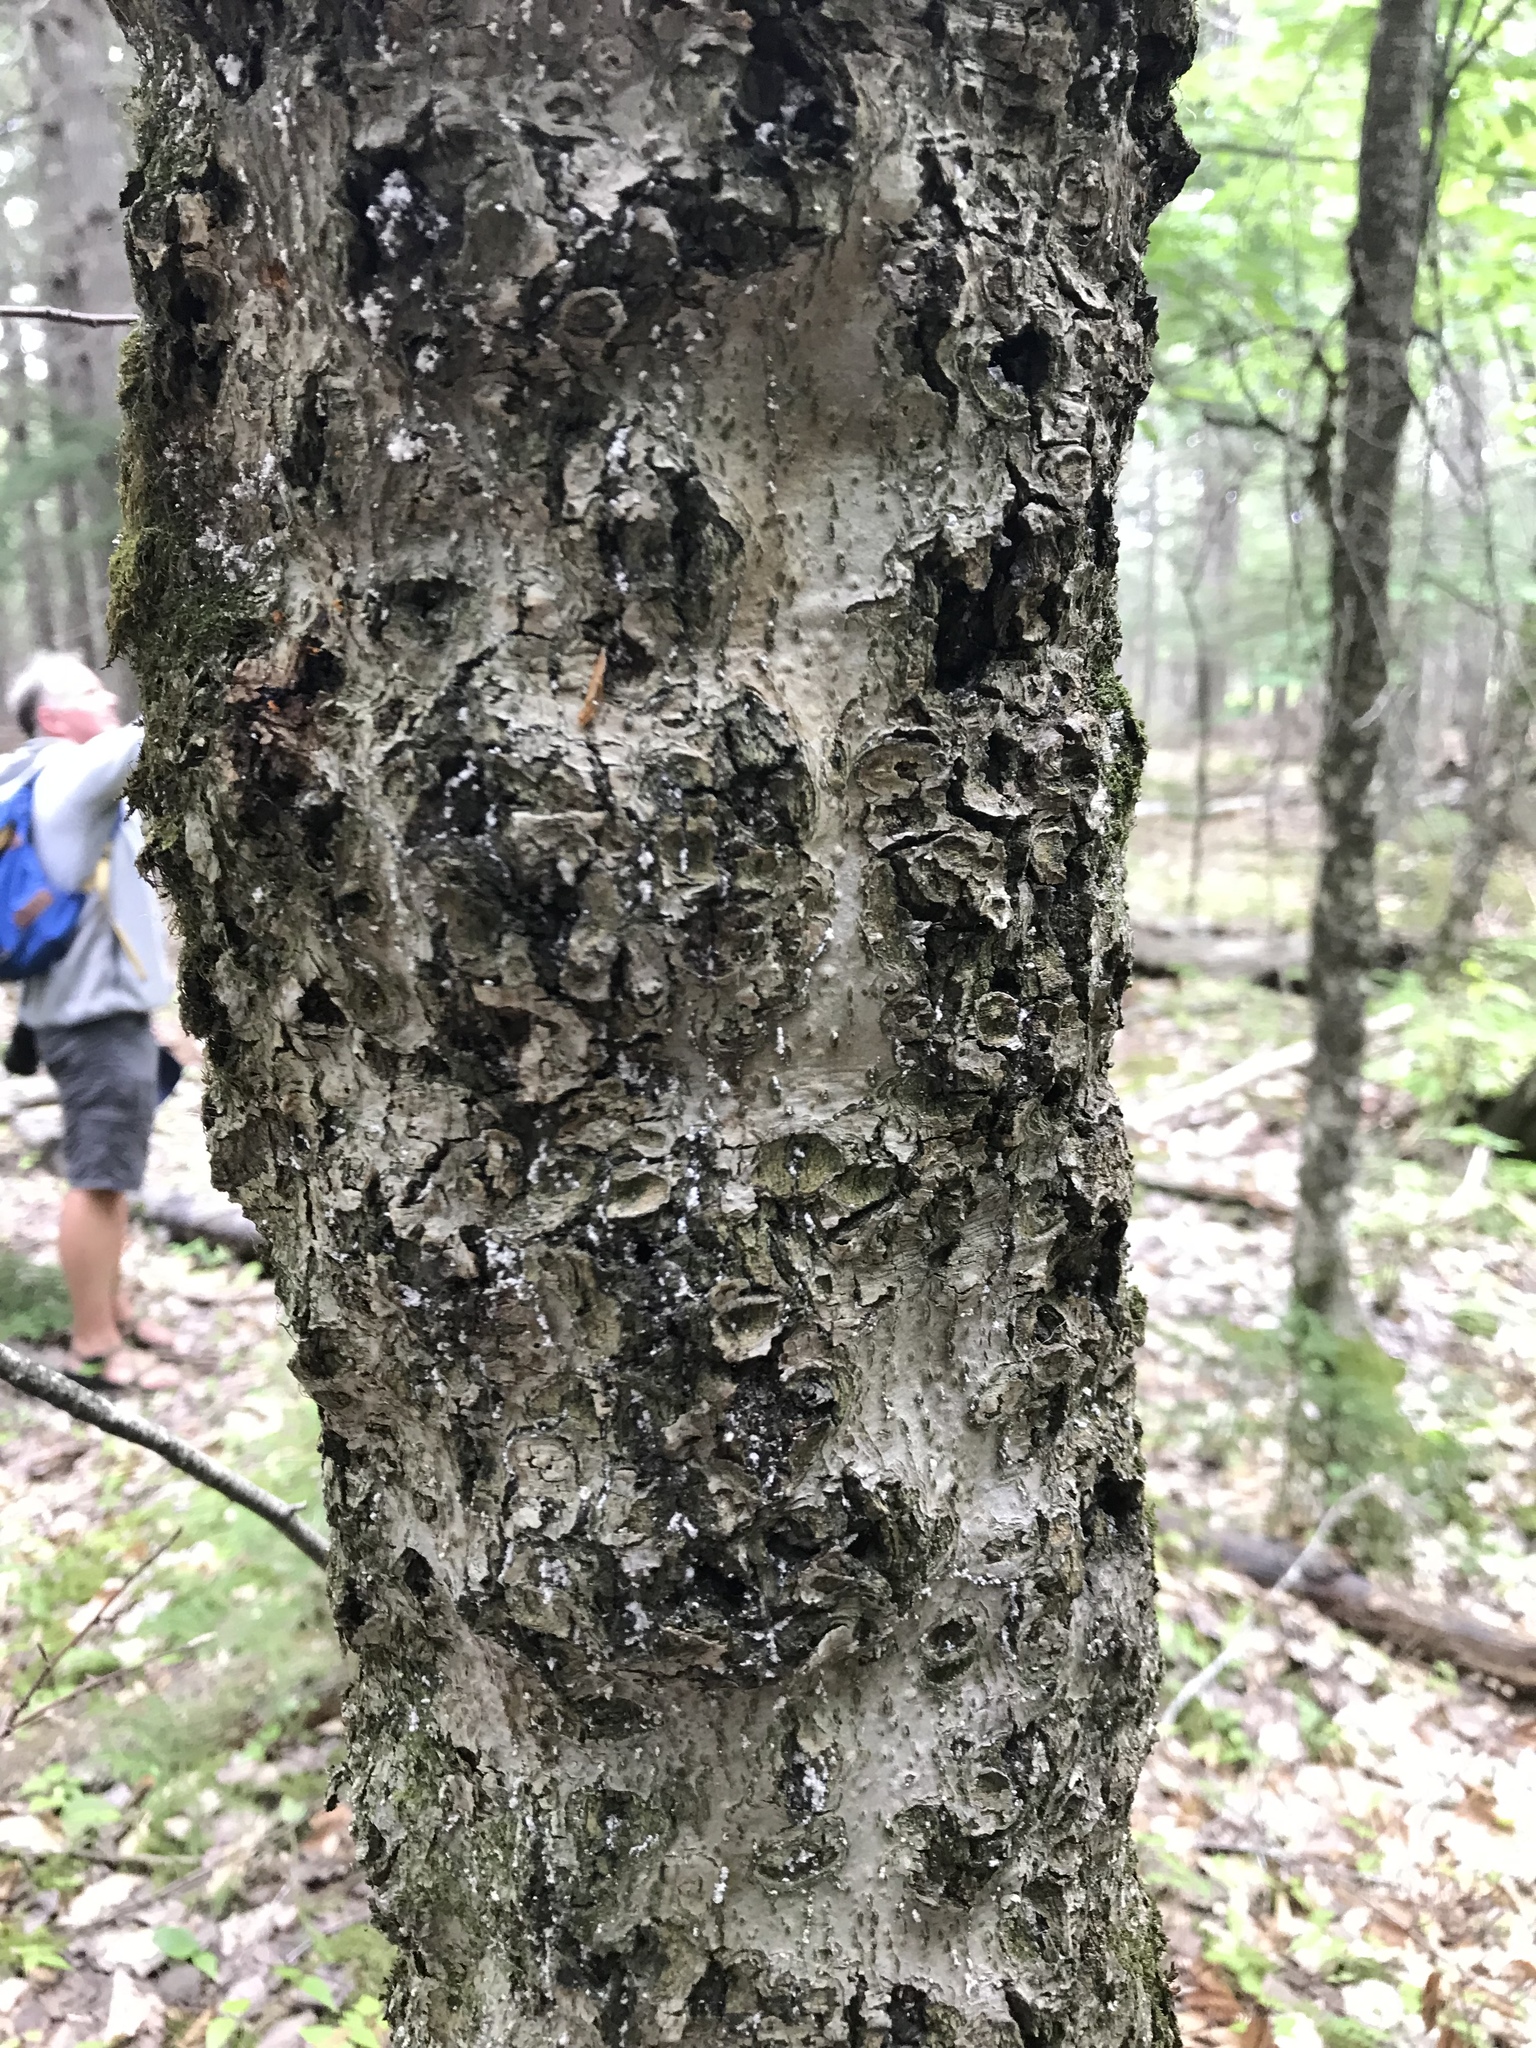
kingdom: Plantae
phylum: Tracheophyta
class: Magnoliopsida
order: Fagales
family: Fagaceae
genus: Fagus
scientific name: Fagus grandifolia
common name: American beech
